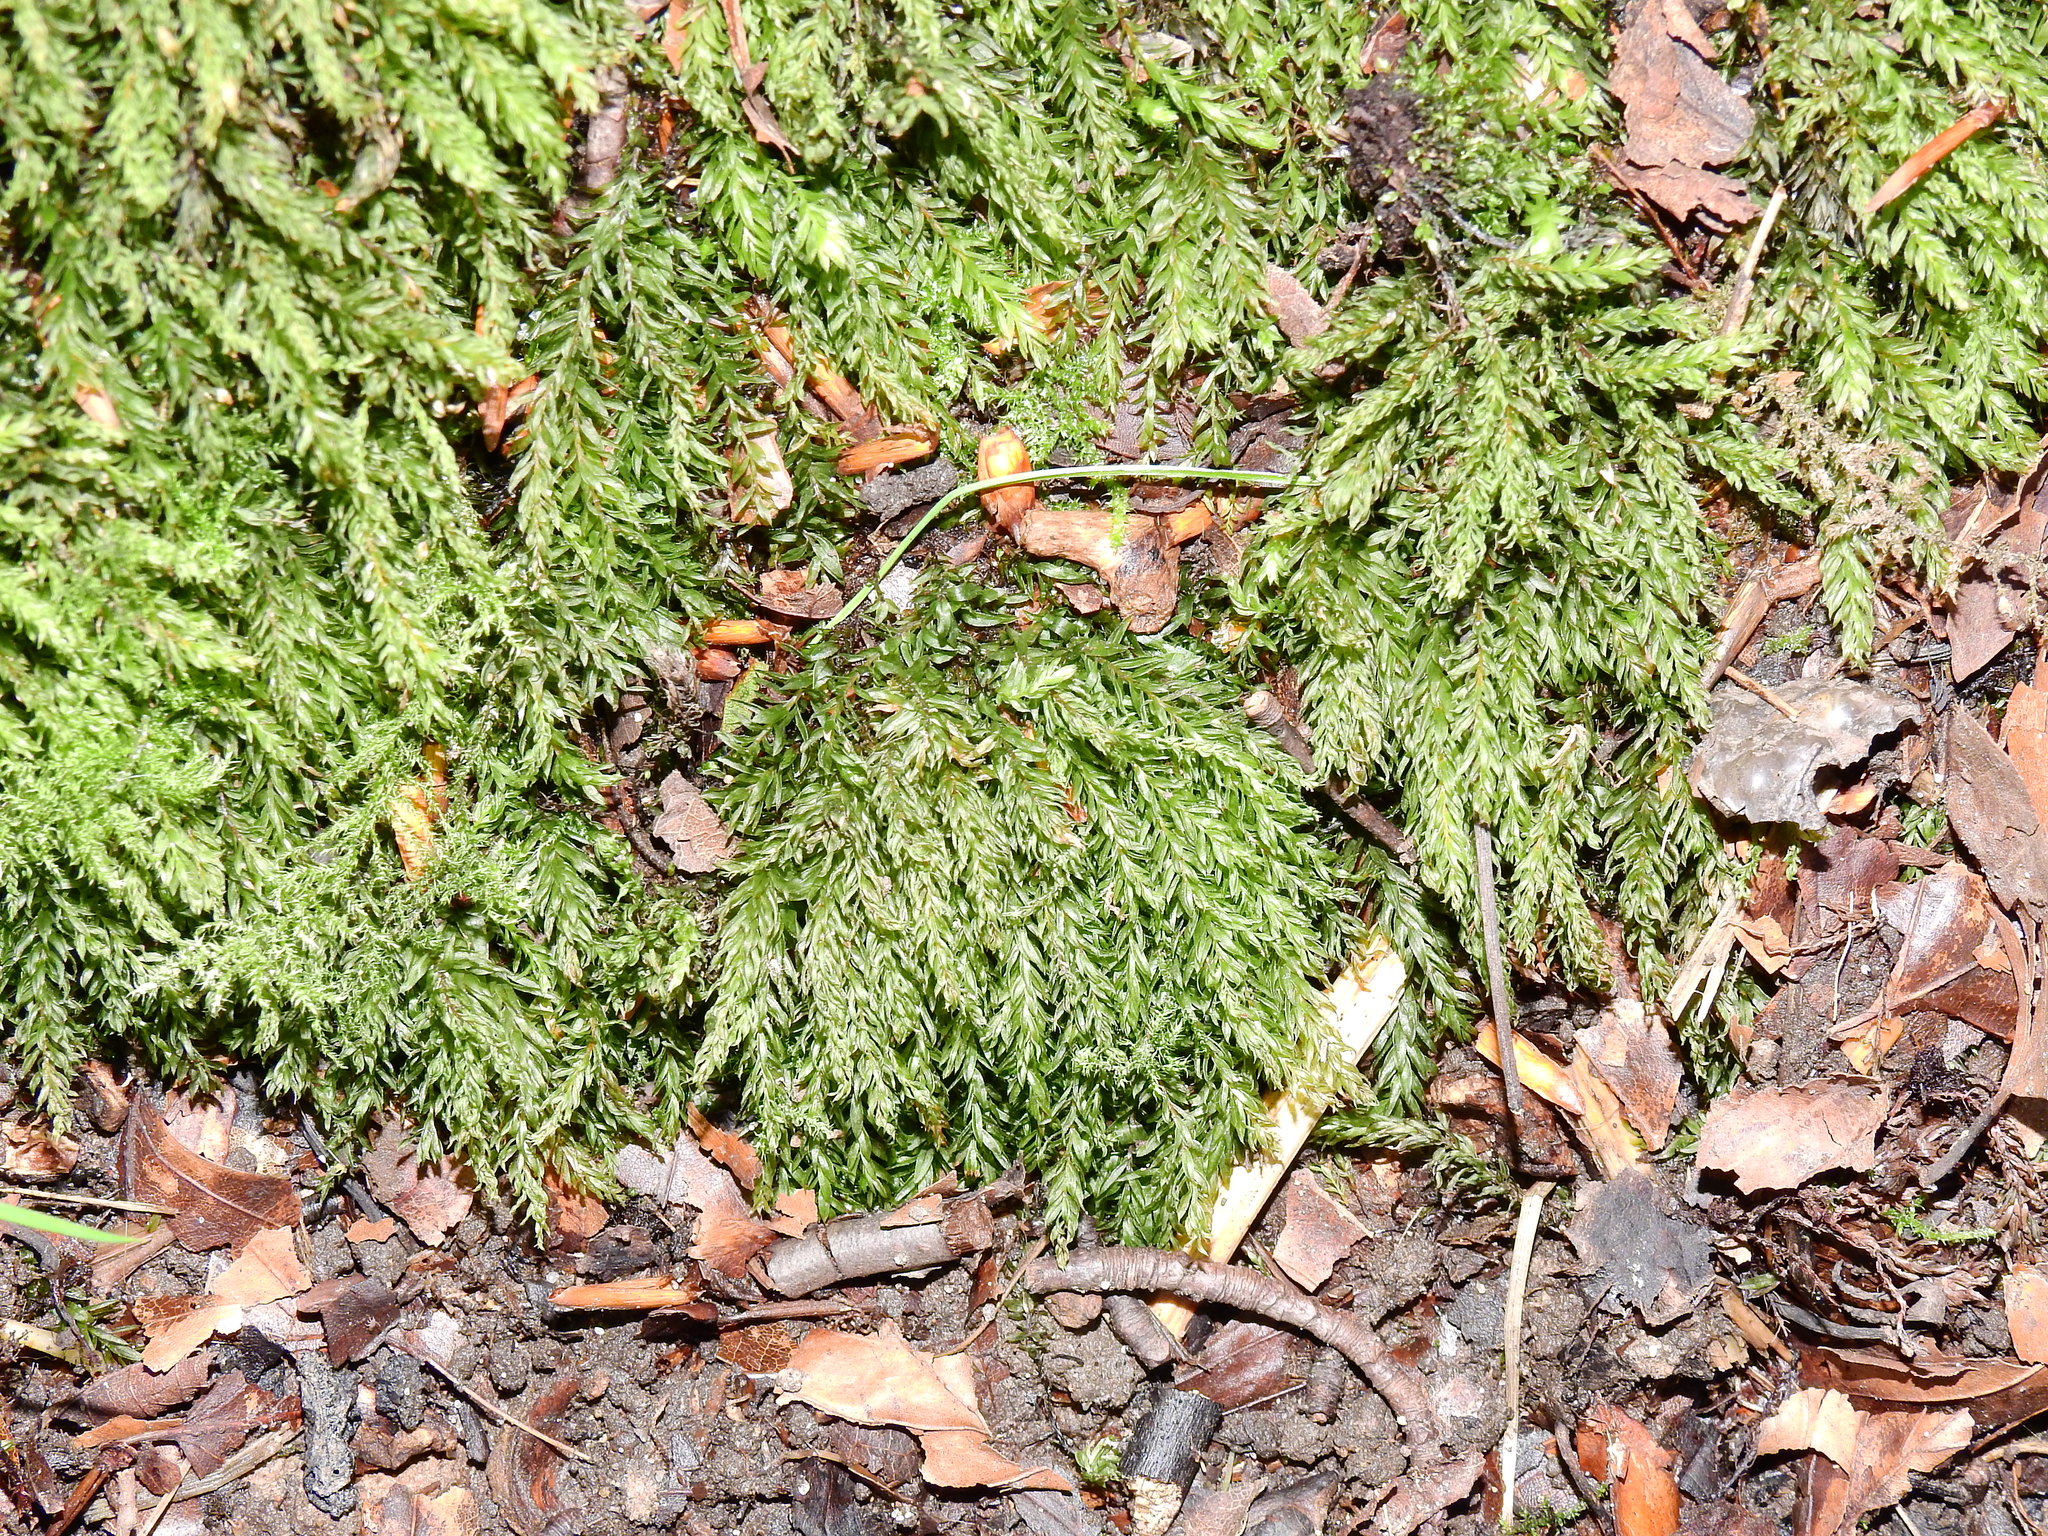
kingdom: Plantae
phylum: Bryophyta
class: Bryopsida
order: Bryales
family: Mniaceae
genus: Mnium
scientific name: Mnium hornum
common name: Swan's-neck leafy moss
